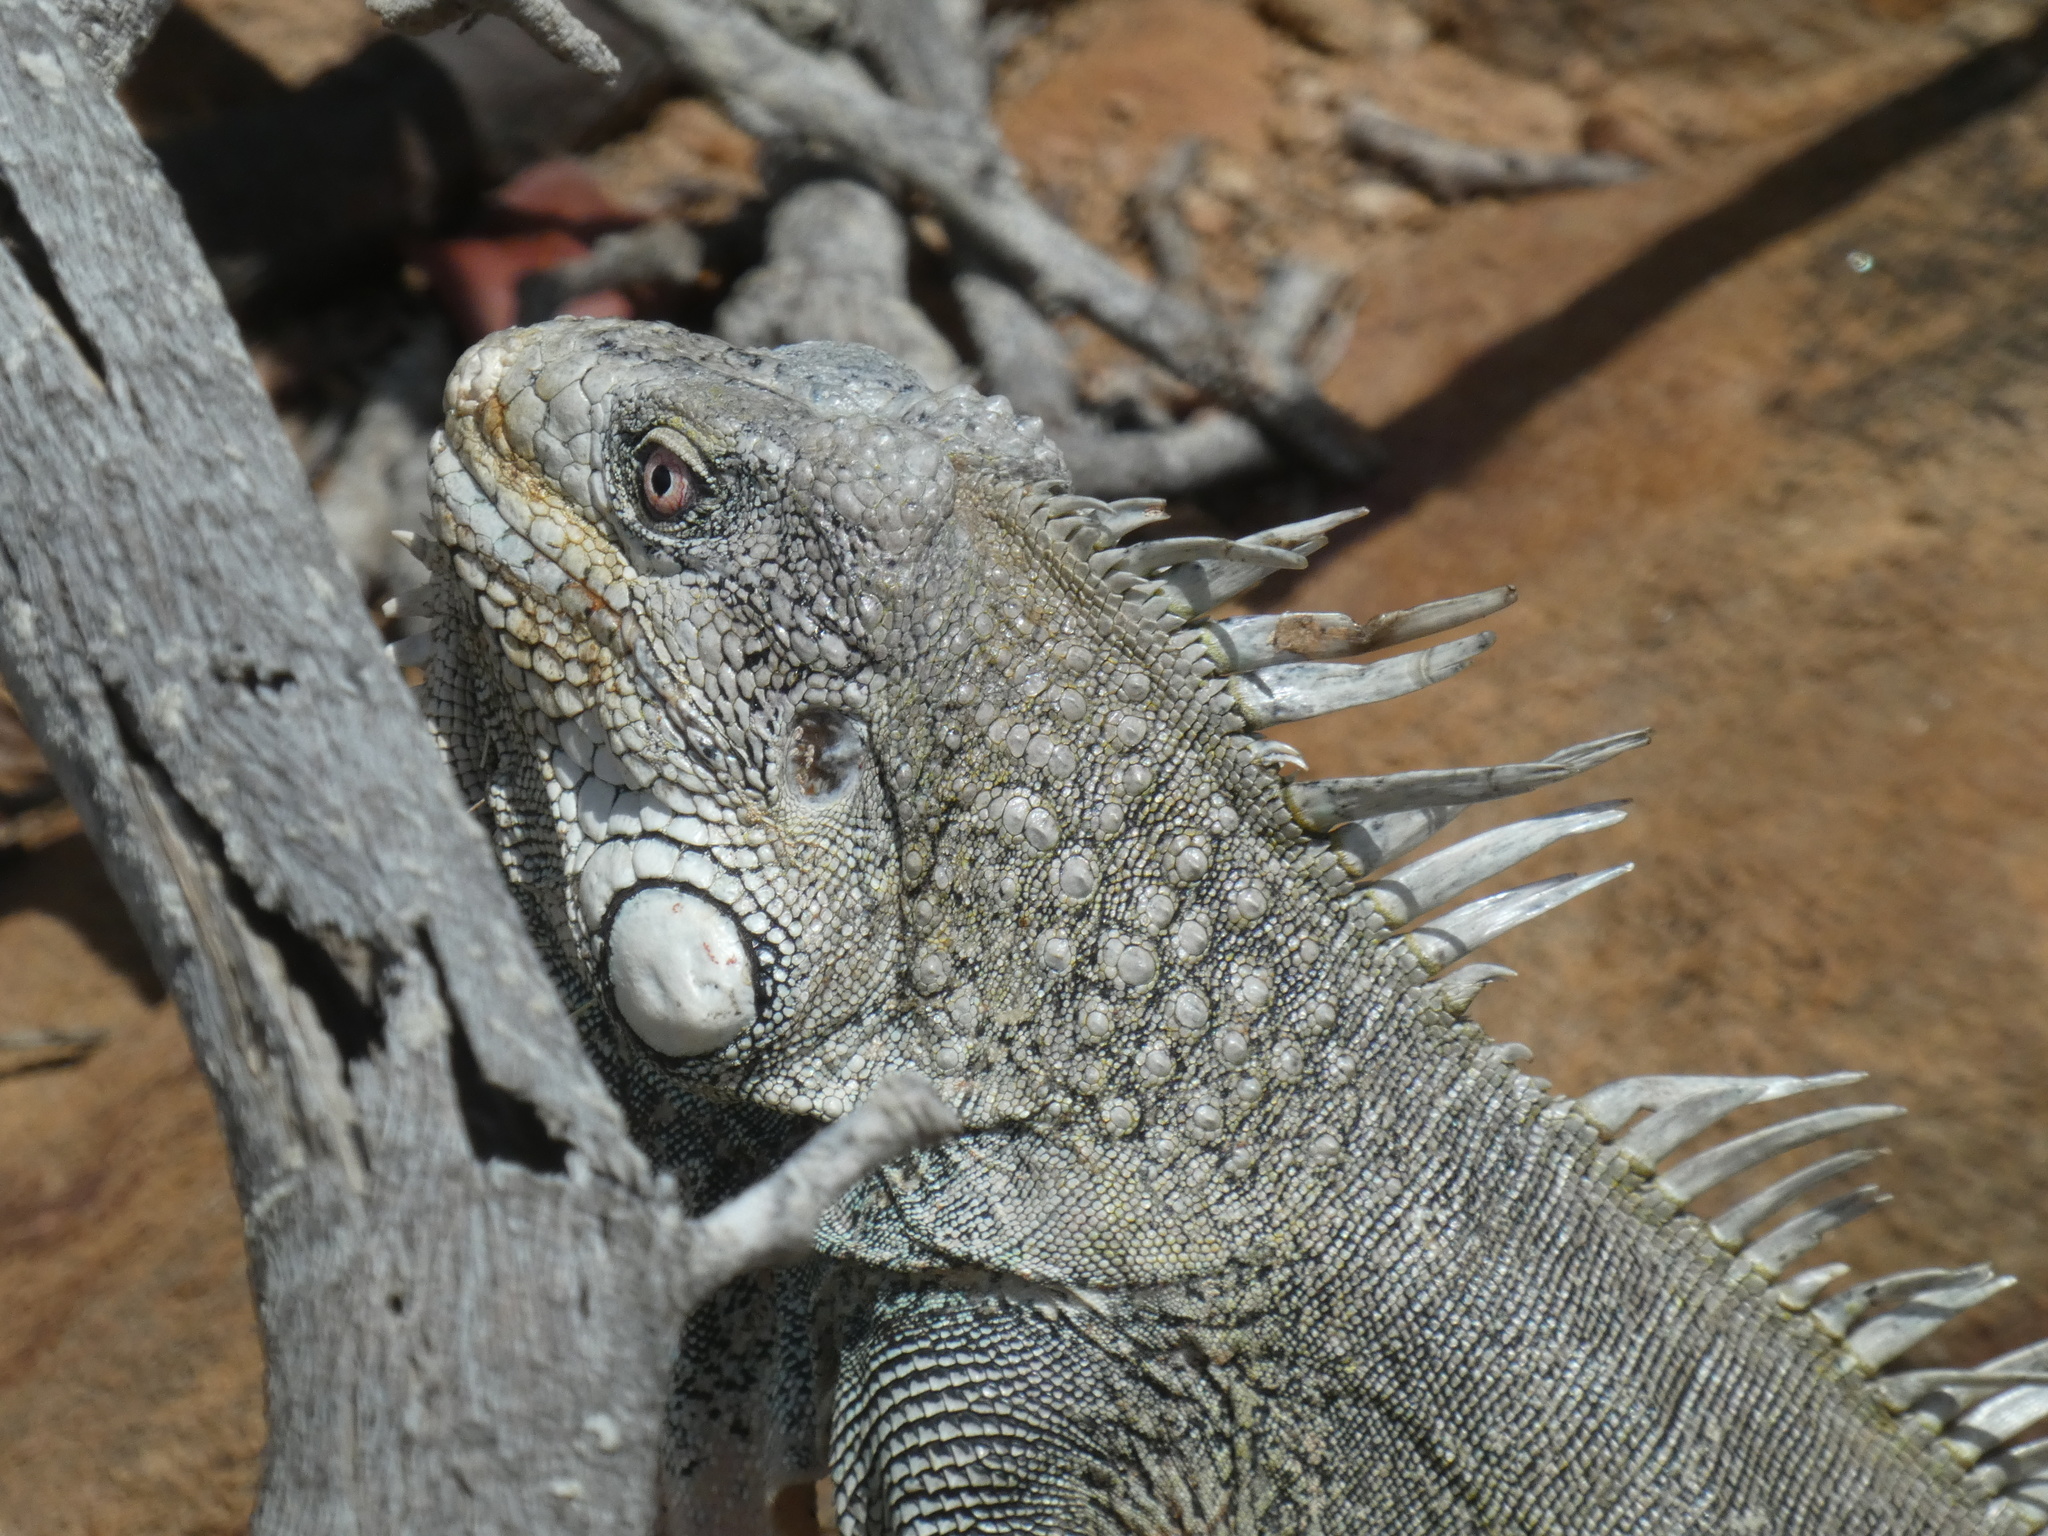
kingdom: Animalia
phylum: Chordata
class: Squamata
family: Iguanidae
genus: Iguana
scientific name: Iguana iguana
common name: Green iguana
